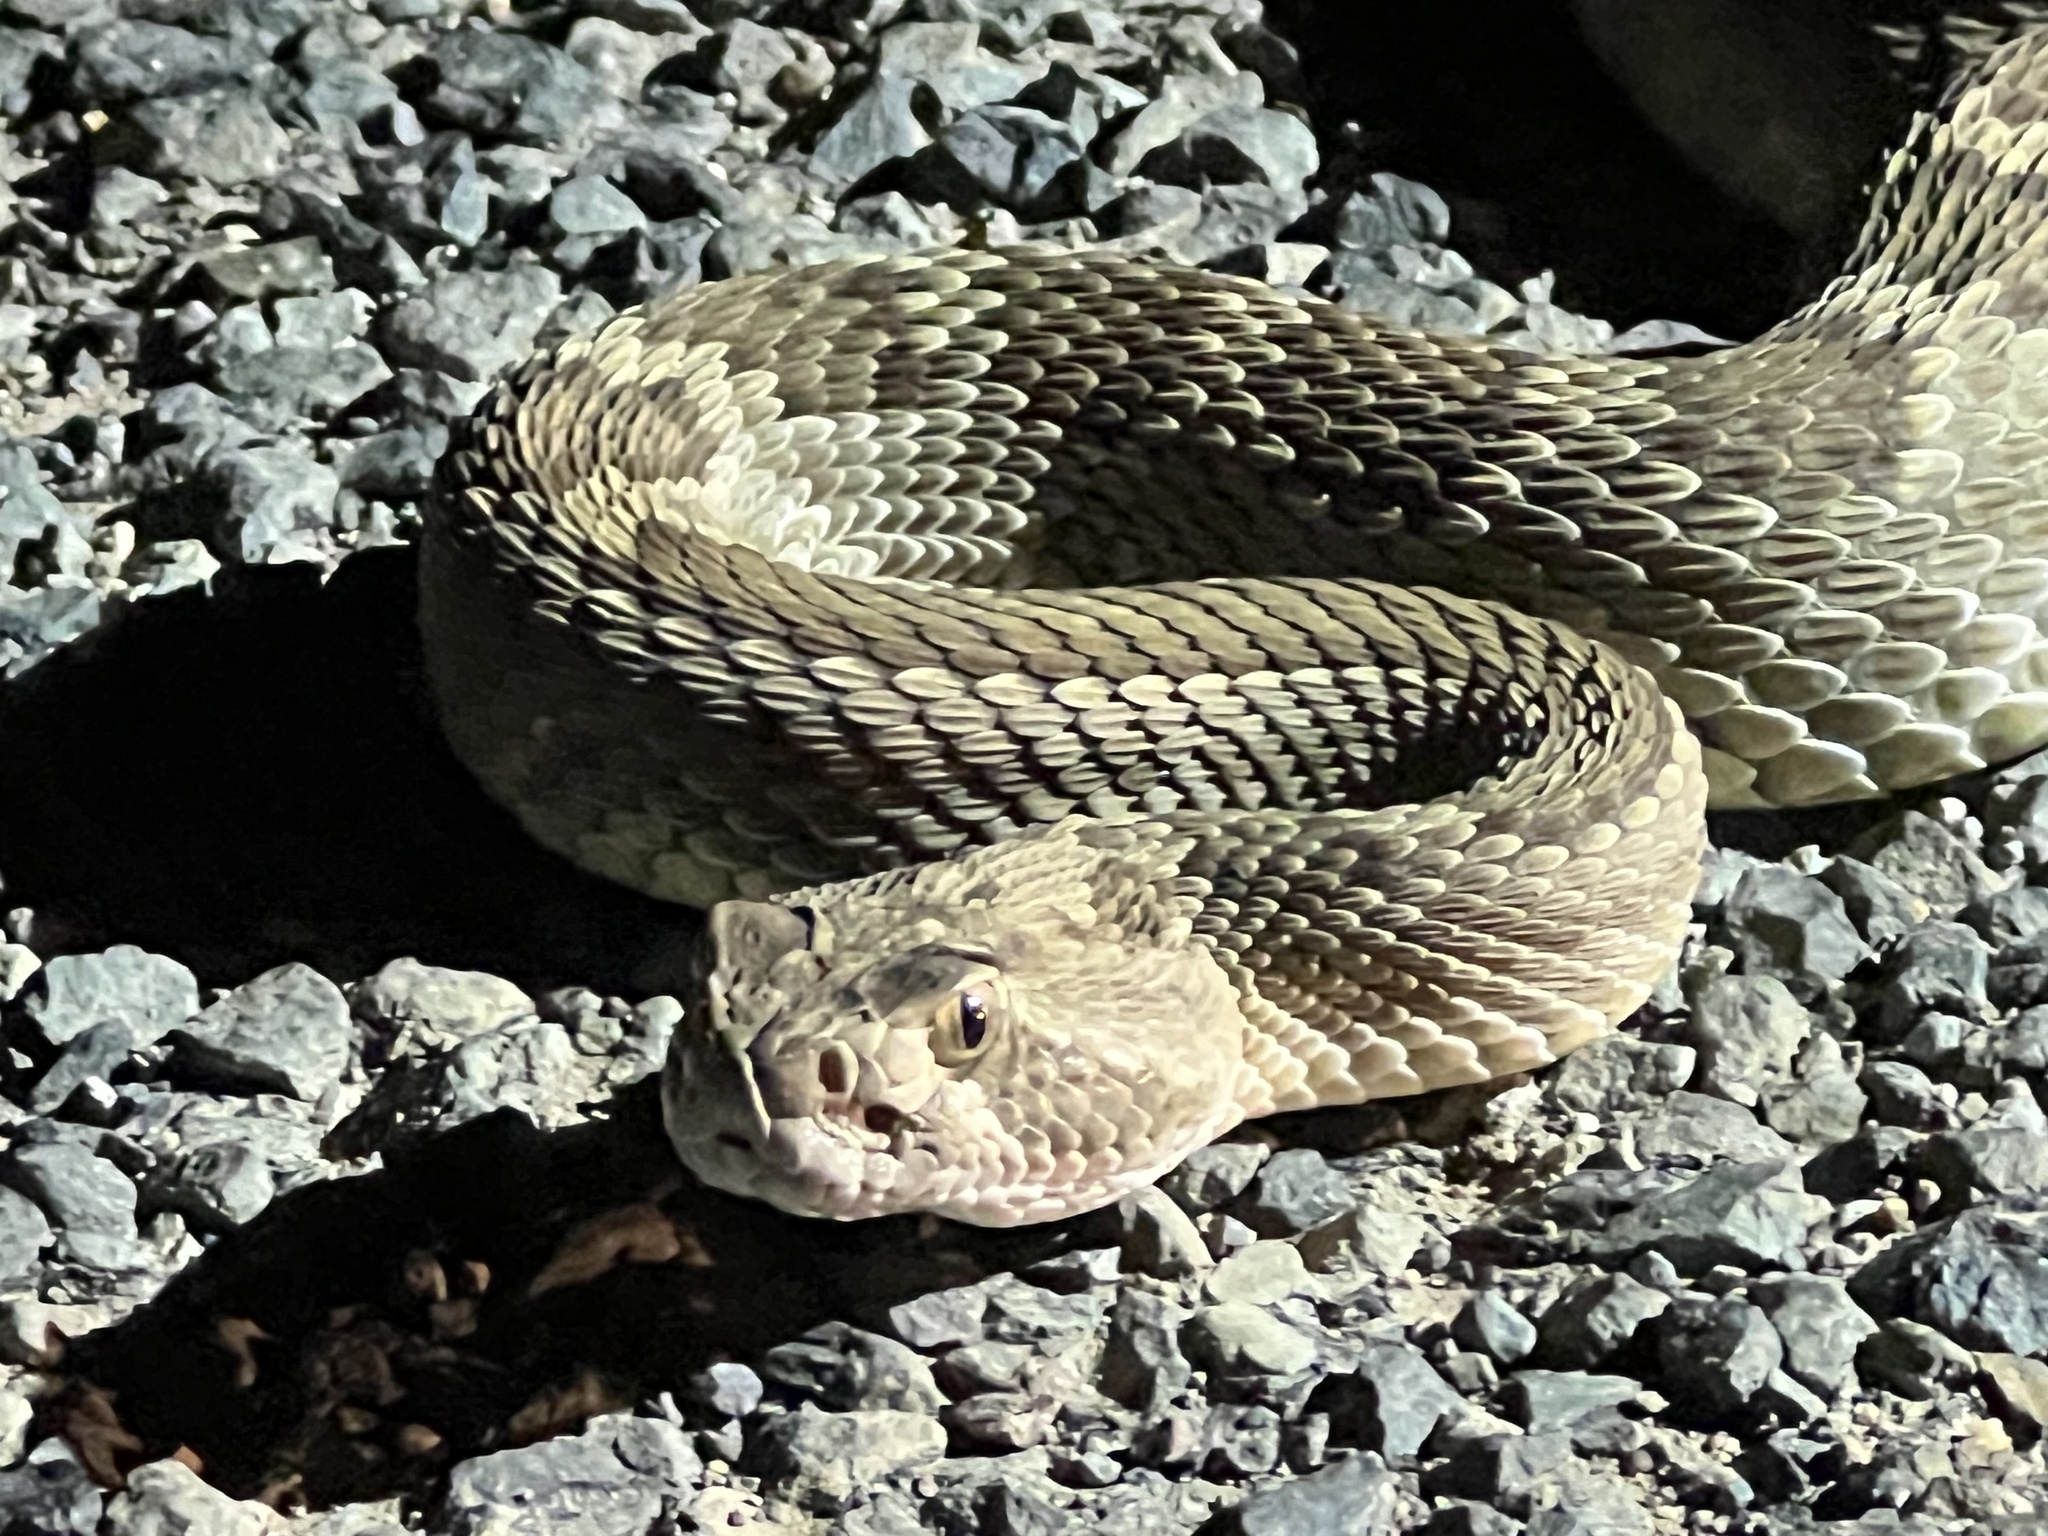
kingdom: Animalia
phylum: Chordata
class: Squamata
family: Viperidae
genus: Crotalus
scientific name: Crotalus scutulatus
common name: Scutulatus
